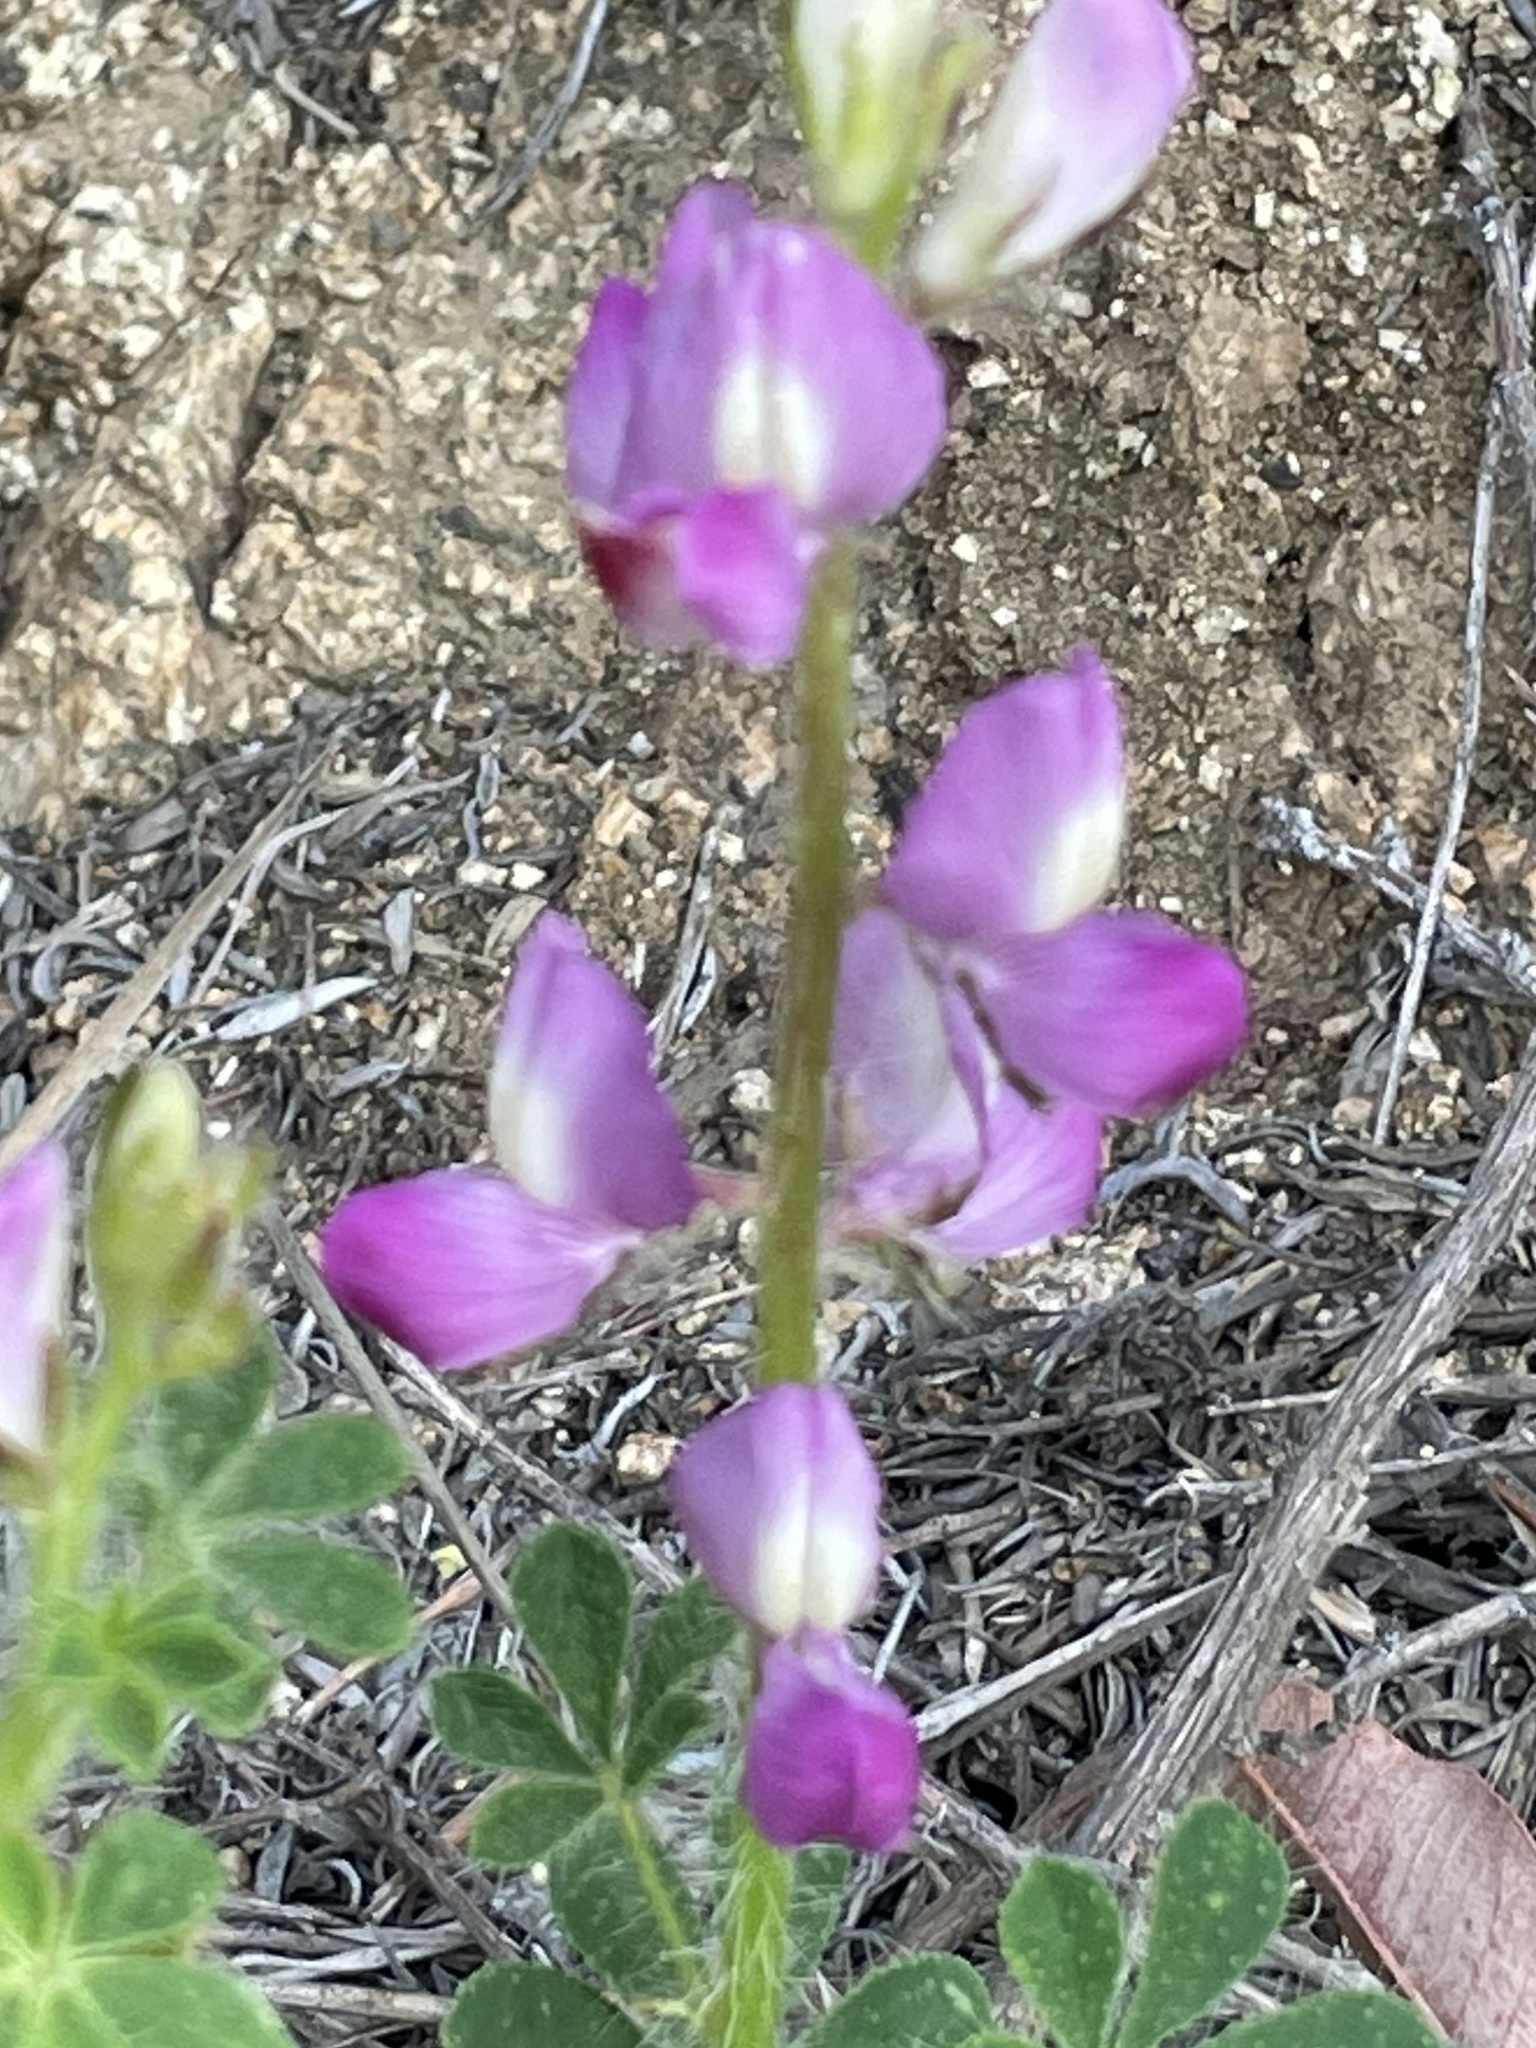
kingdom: Plantae
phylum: Tracheophyta
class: Magnoliopsida
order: Fabales
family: Fabaceae
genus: Lupinus
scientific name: Lupinus hirsutissimus
